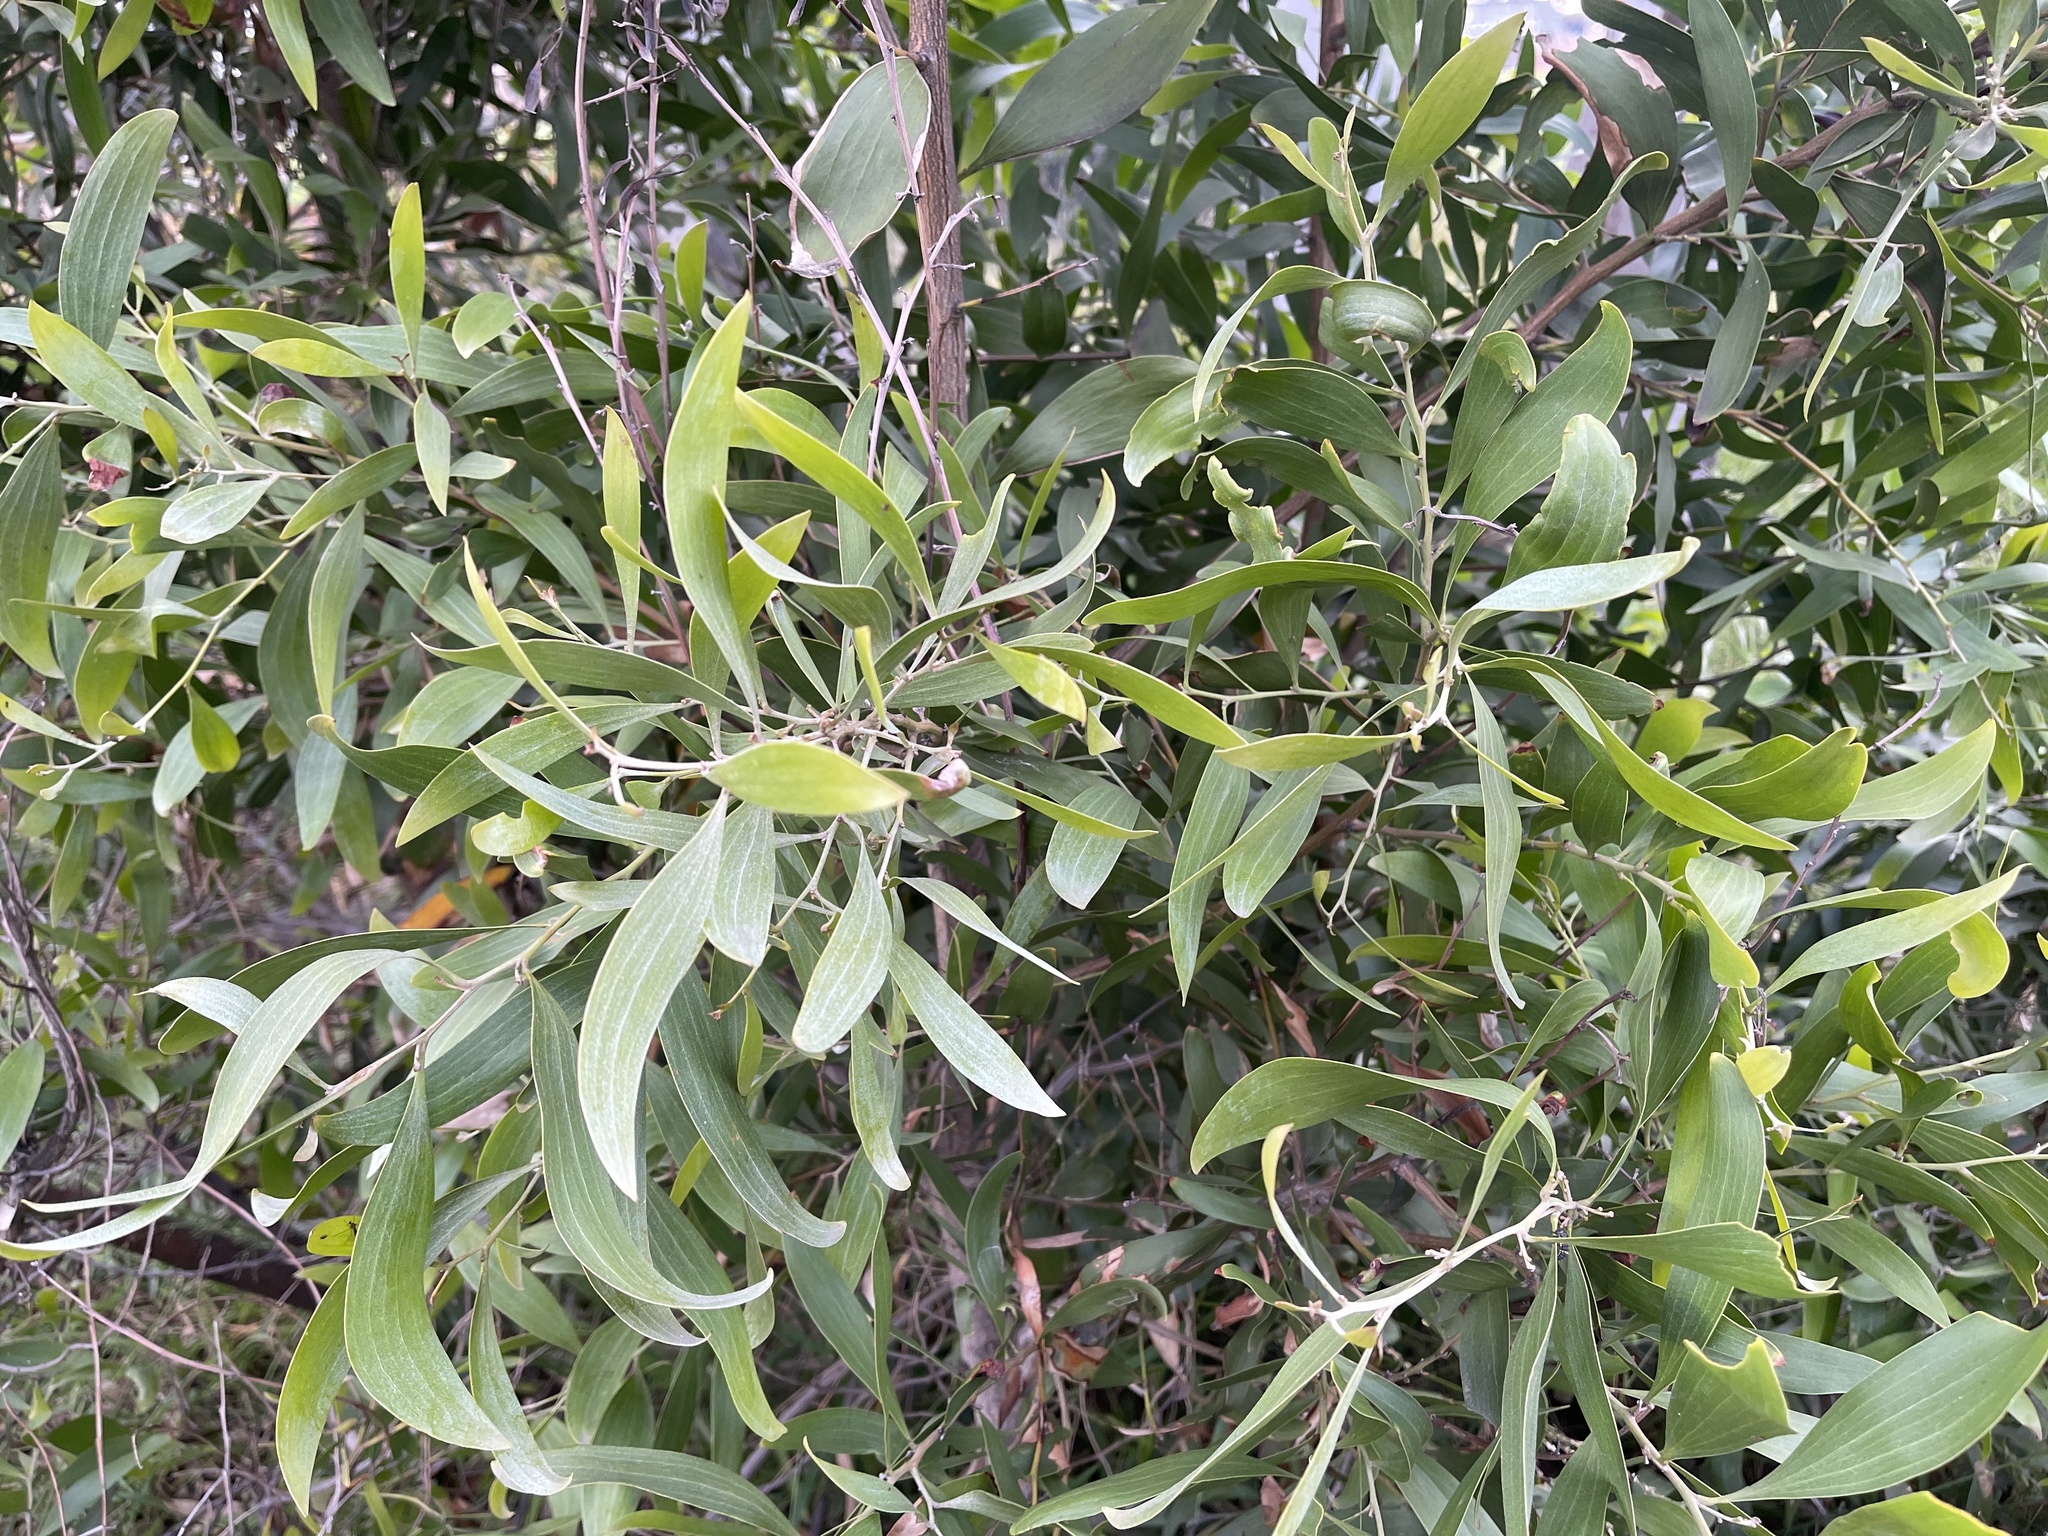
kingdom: Plantae
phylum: Tracheophyta
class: Magnoliopsida
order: Fabales
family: Fabaceae
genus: Acacia
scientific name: Acacia melanoxylon
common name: Blackwood
